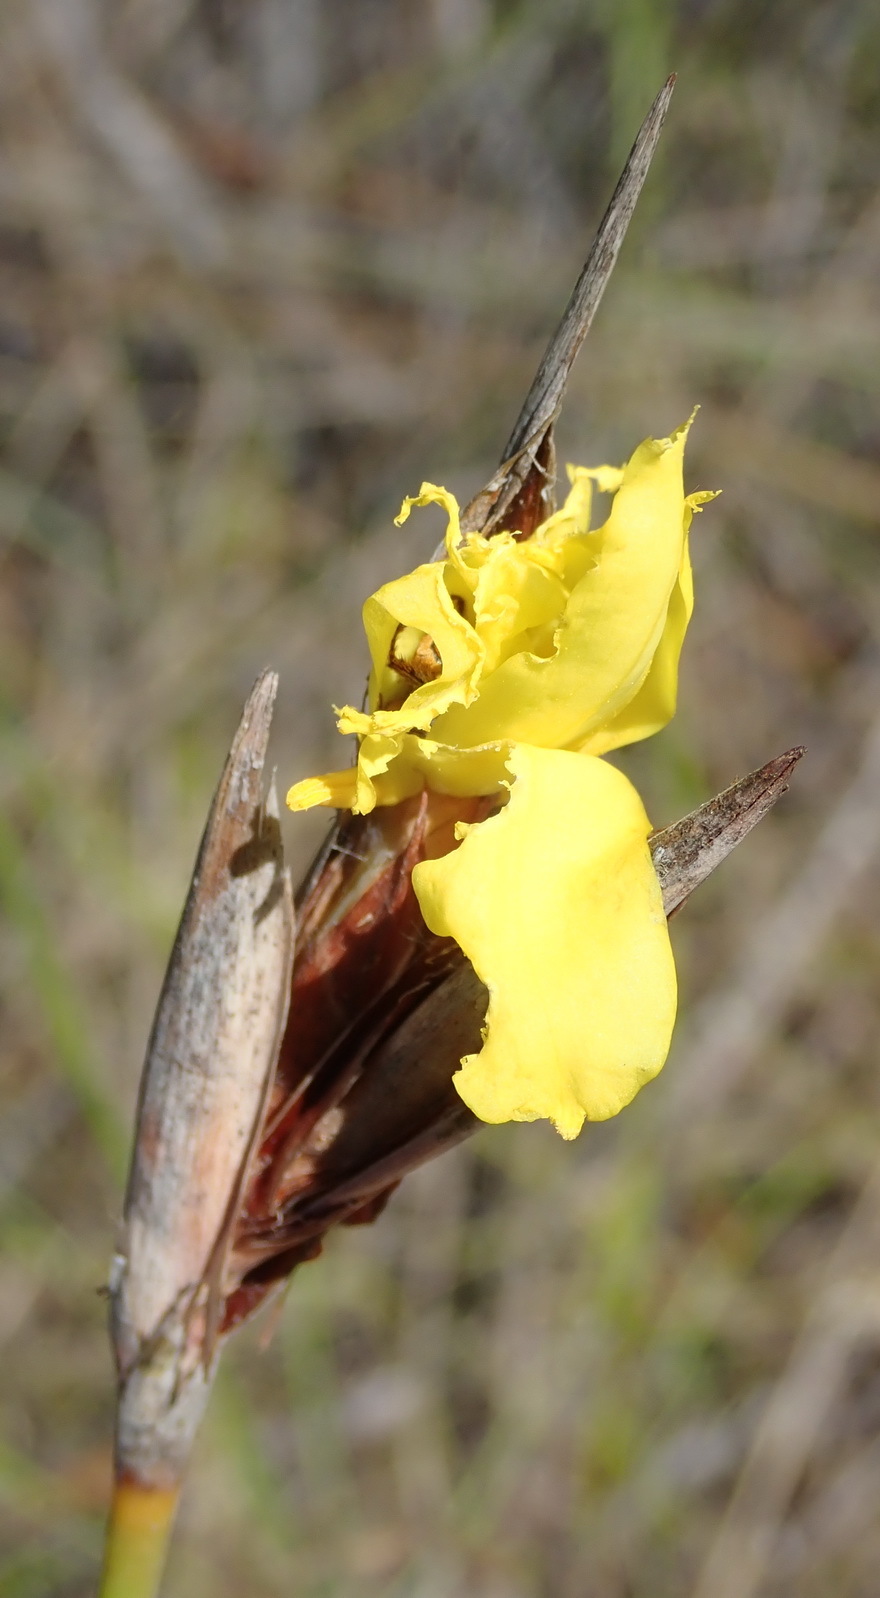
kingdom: Plantae
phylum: Tracheophyta
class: Liliopsida
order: Asparagales
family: Iridaceae
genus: Bobartia
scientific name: Bobartia macrospatha
